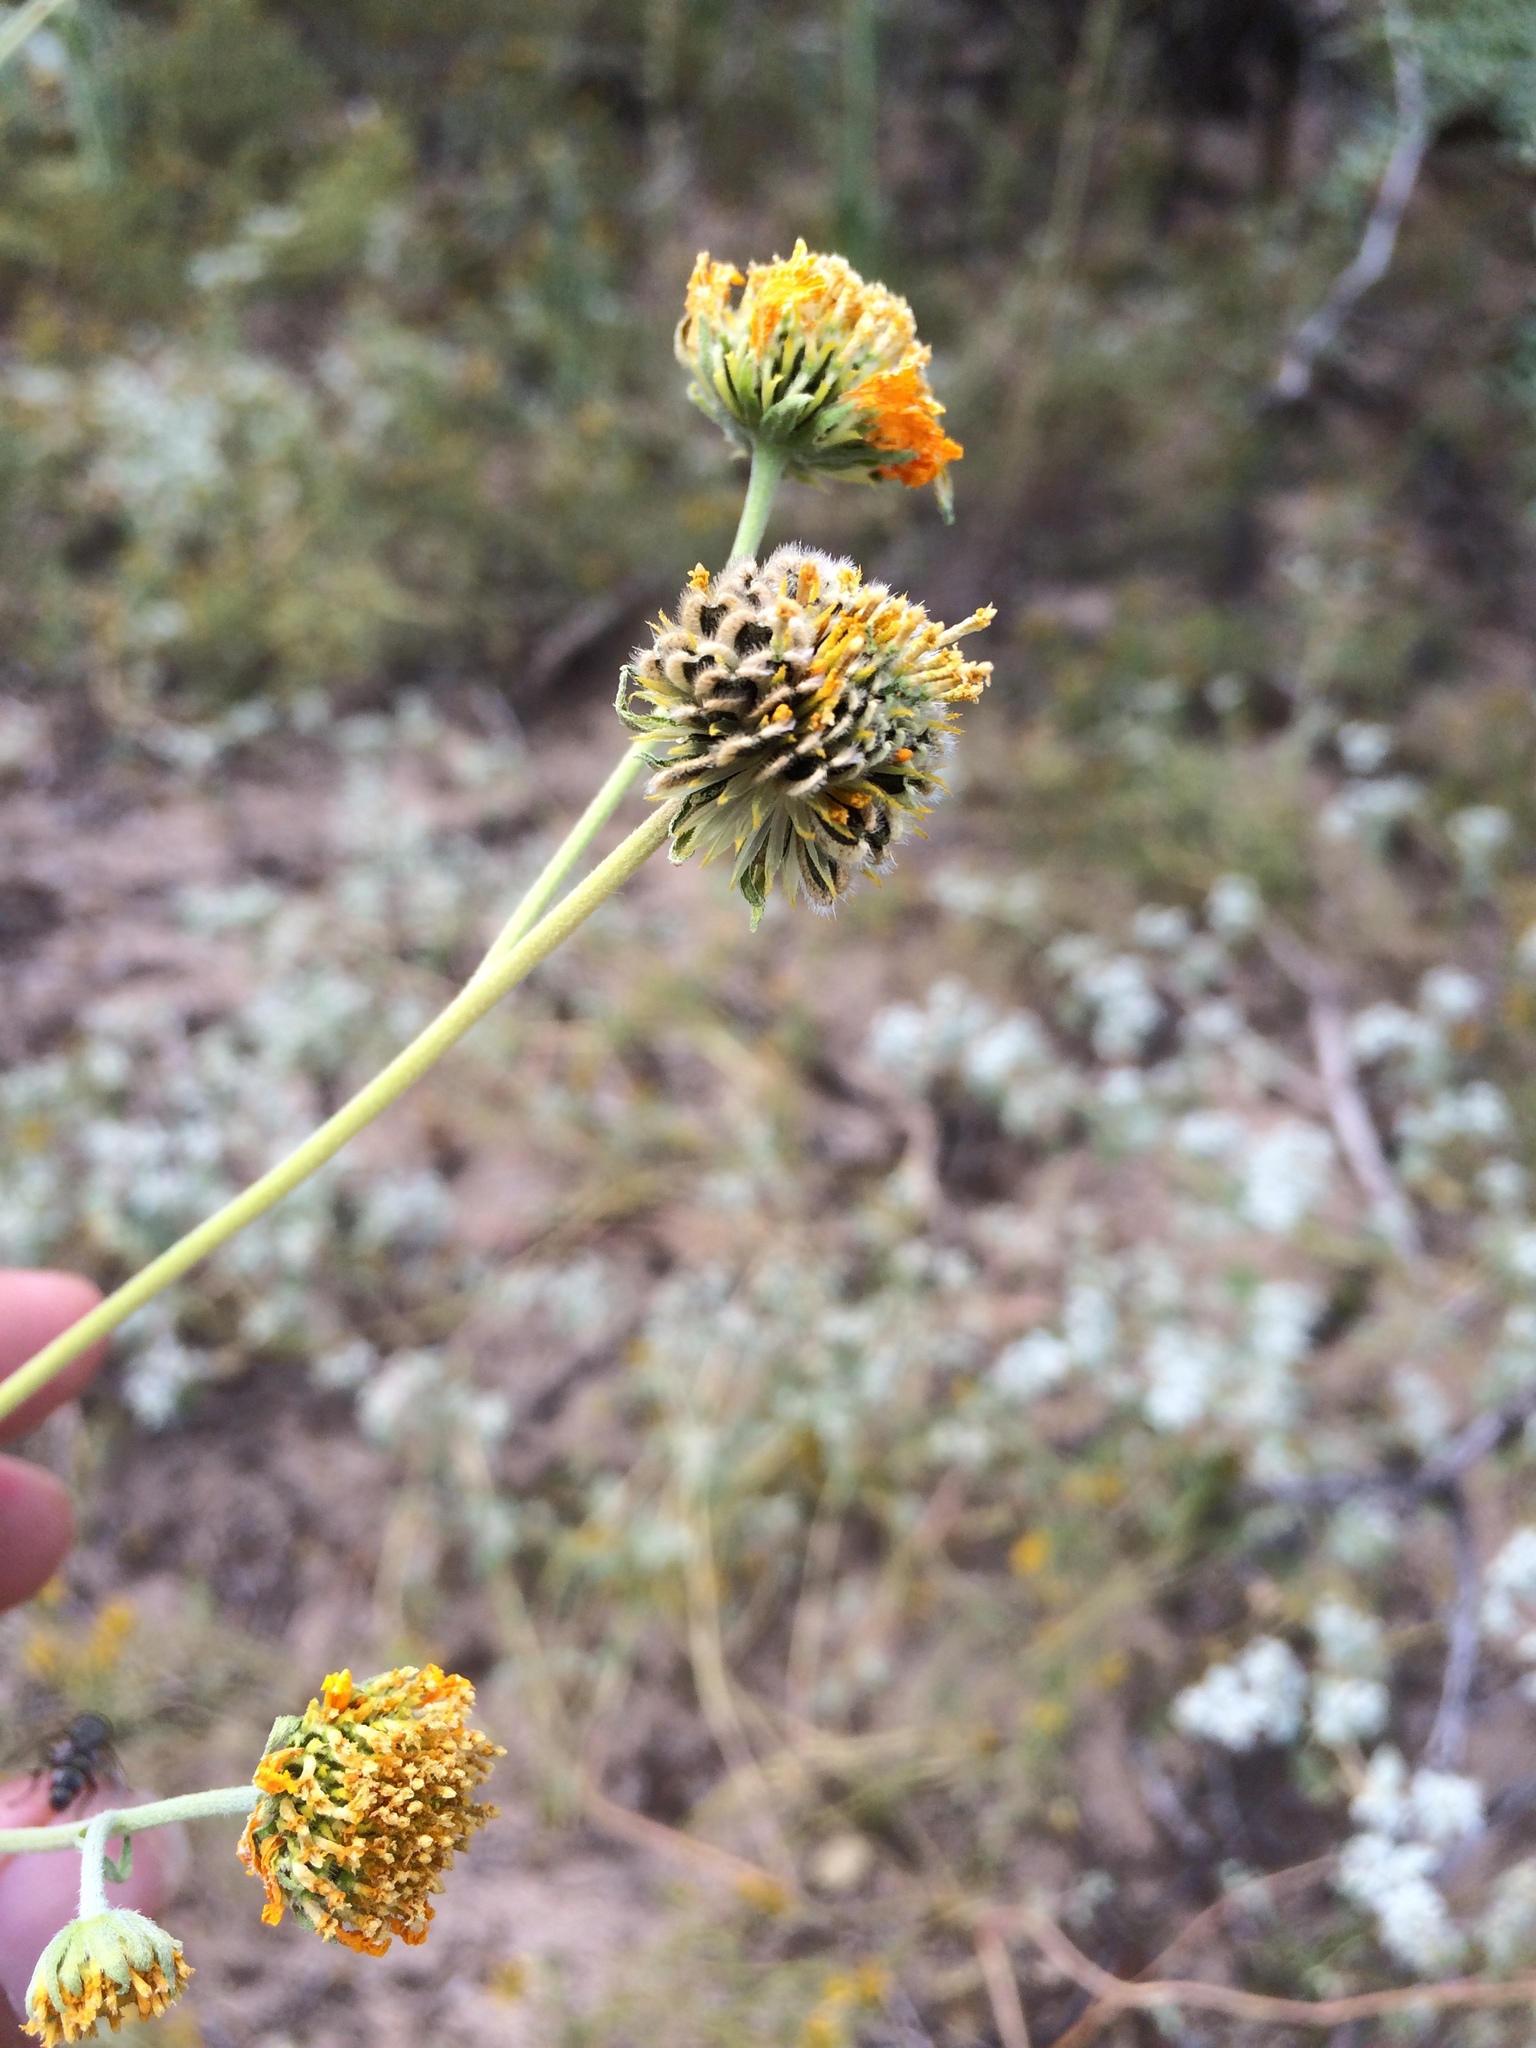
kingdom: Plantae
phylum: Tracheophyta
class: Magnoliopsida
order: Asterales
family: Asteraceae
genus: Verbesina
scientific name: Verbesina encelioides
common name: Golden crownbeard
